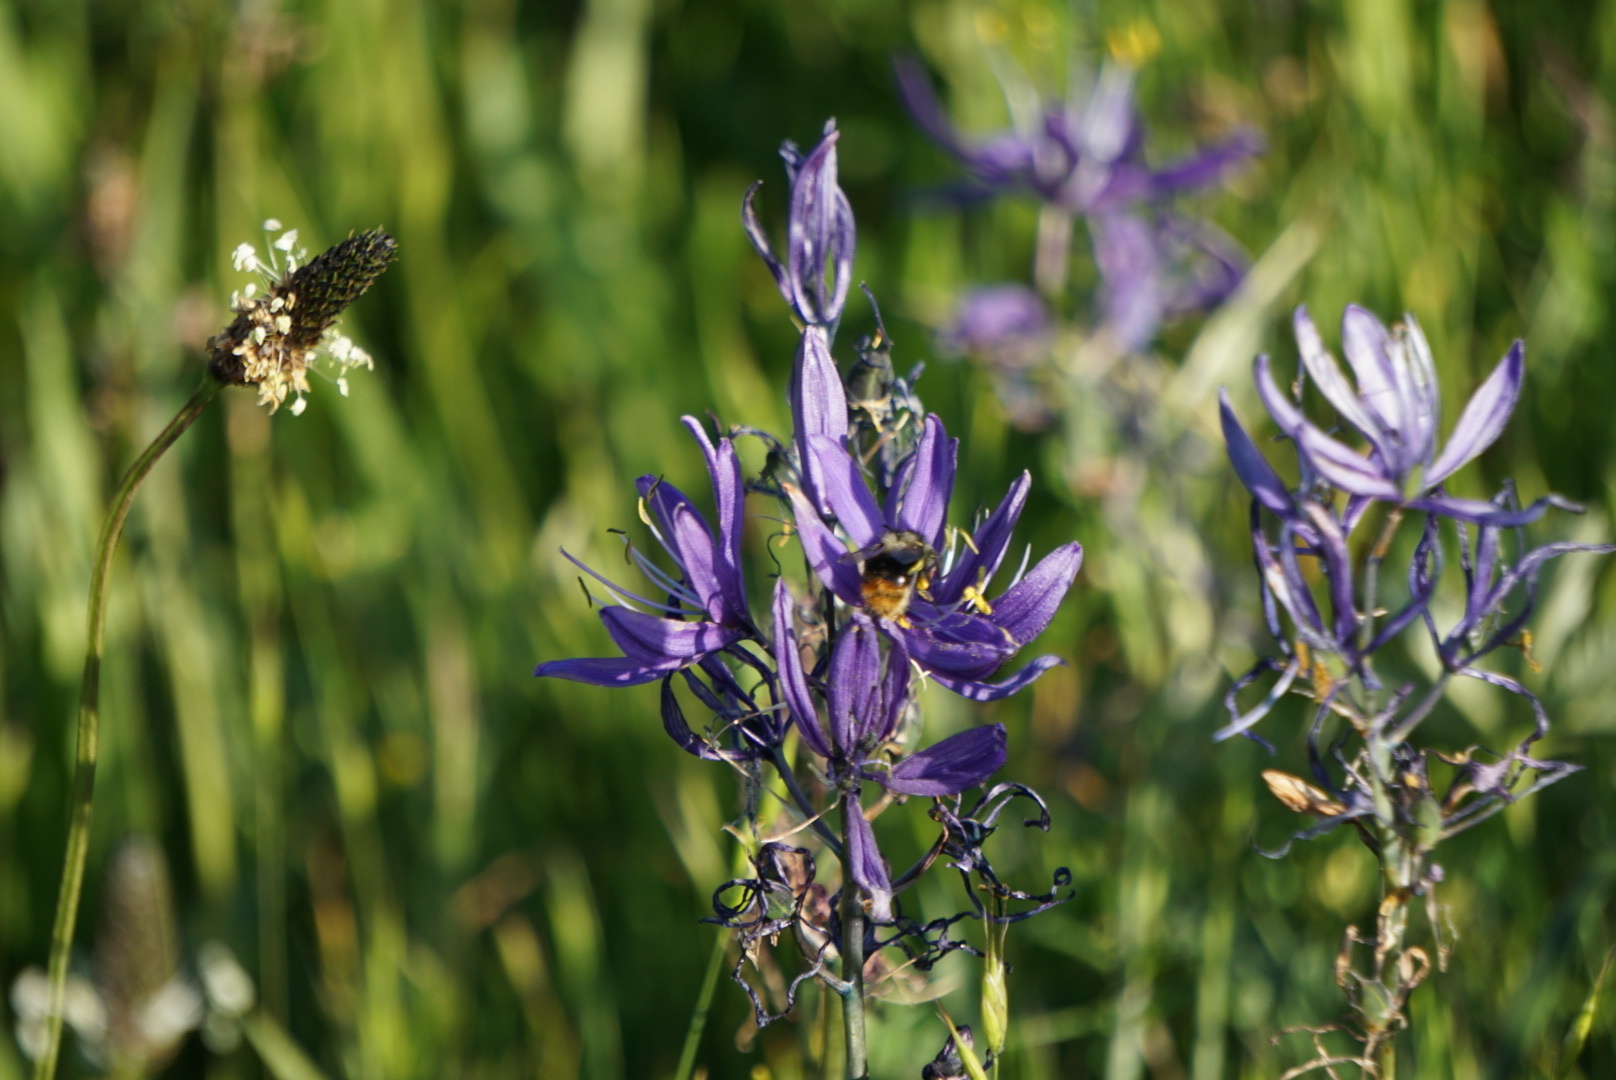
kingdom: Animalia
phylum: Arthropoda
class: Insecta
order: Hymenoptera
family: Apidae
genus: Bombus
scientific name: Bombus mixtus
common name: Fuzzy-horned bumble bee
